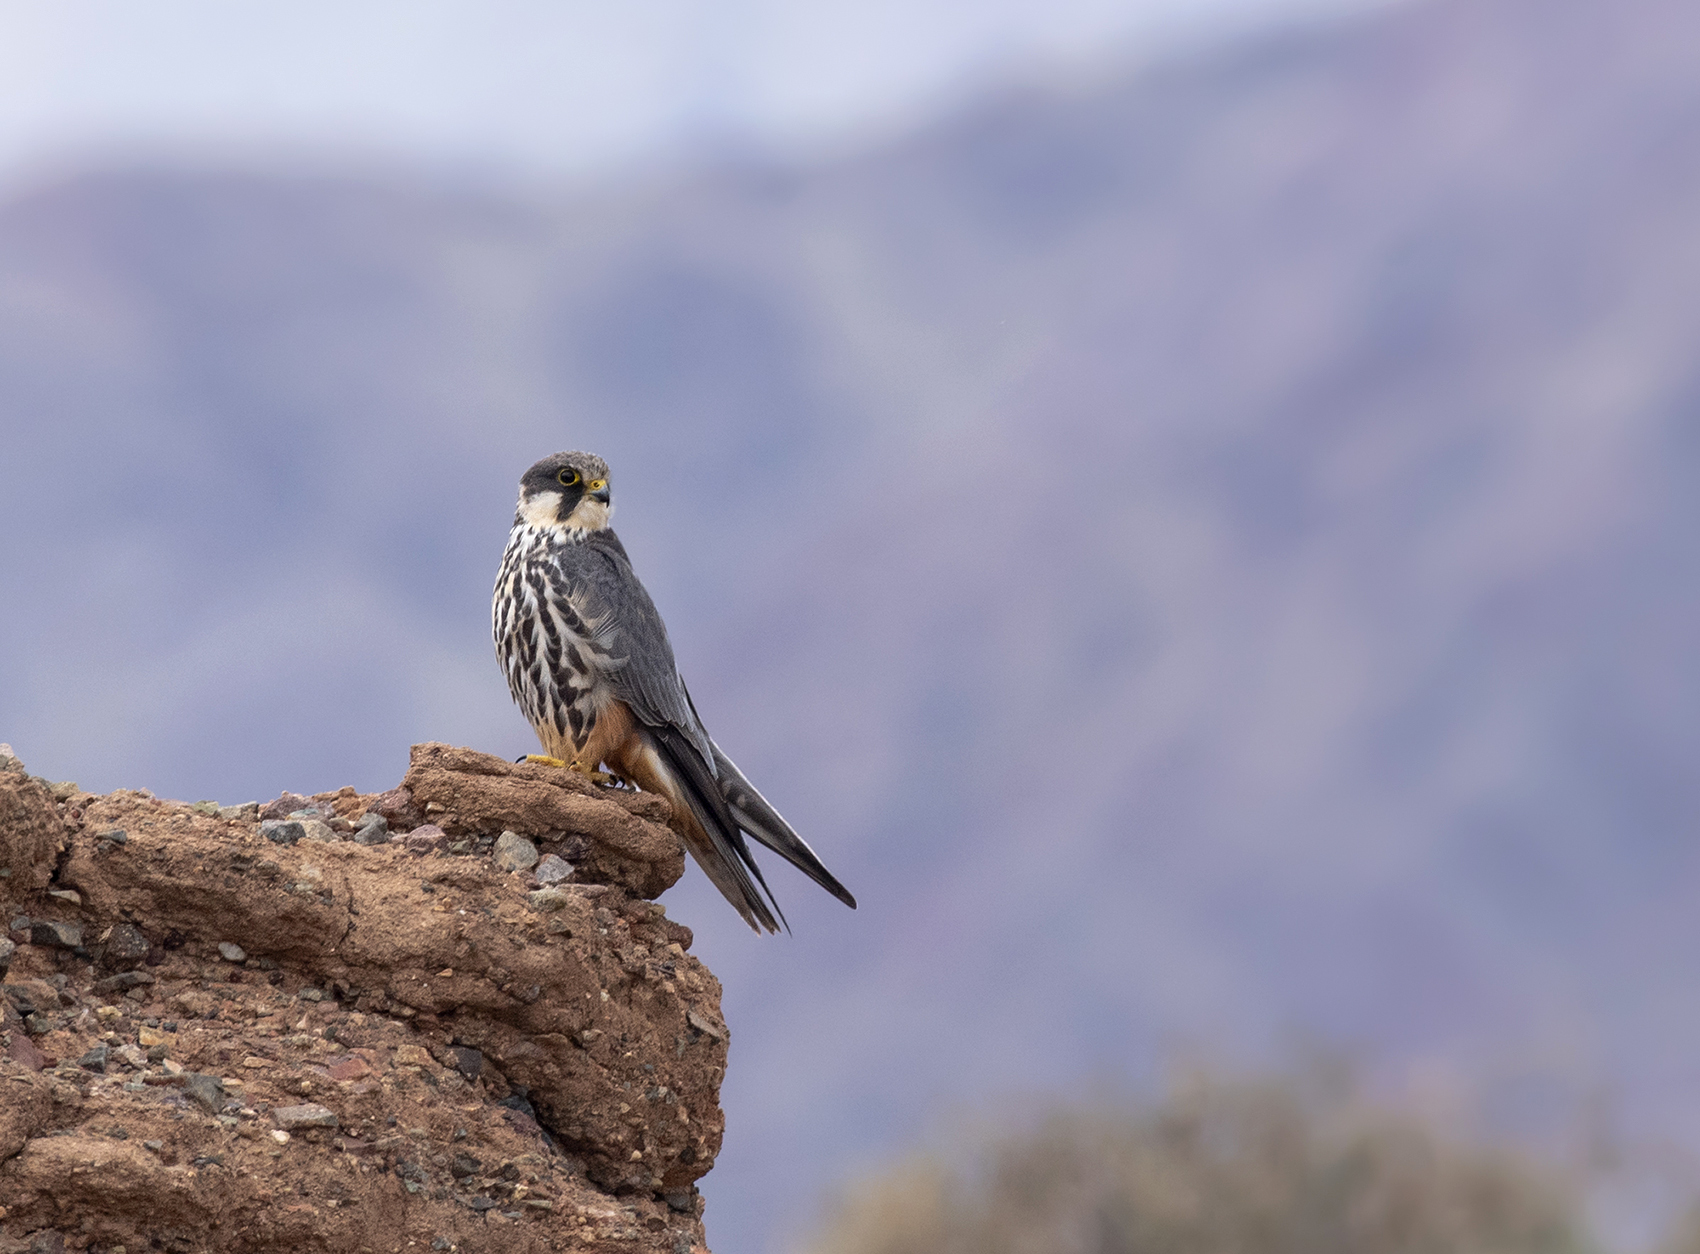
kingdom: Animalia
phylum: Chordata
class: Aves
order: Falconiformes
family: Falconidae
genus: Falco
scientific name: Falco subbuteo
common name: Eurasian hobby
